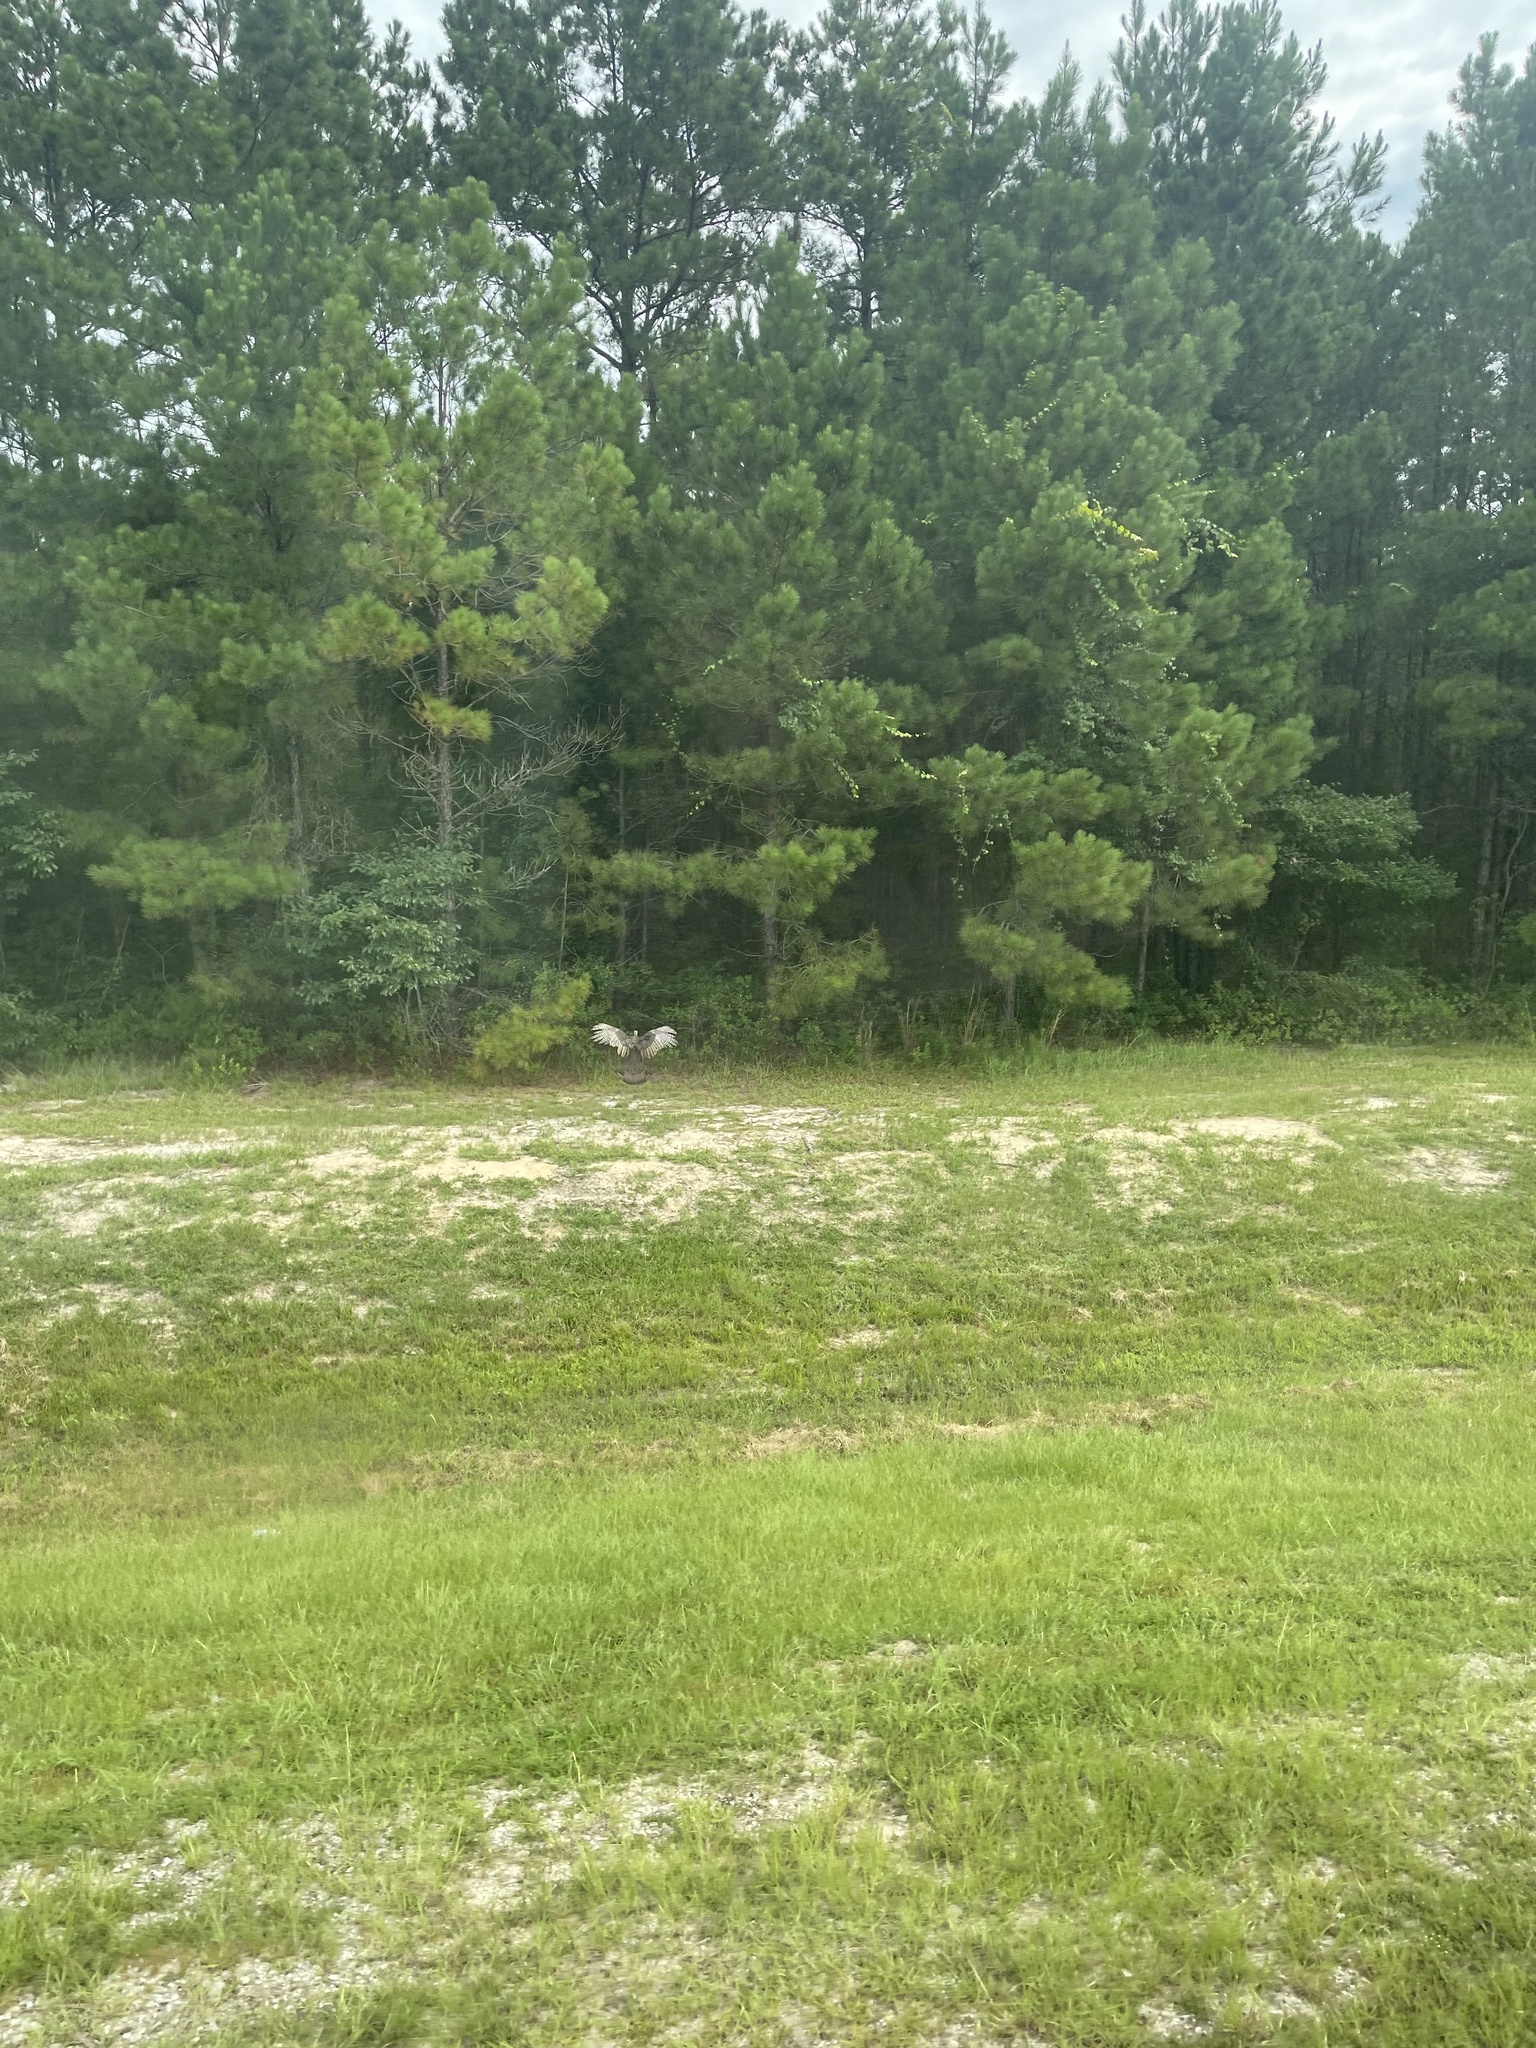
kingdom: Animalia
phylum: Chordata
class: Aves
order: Galliformes
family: Phasianidae
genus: Meleagris
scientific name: Meleagris gallopavo
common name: Wild turkey
